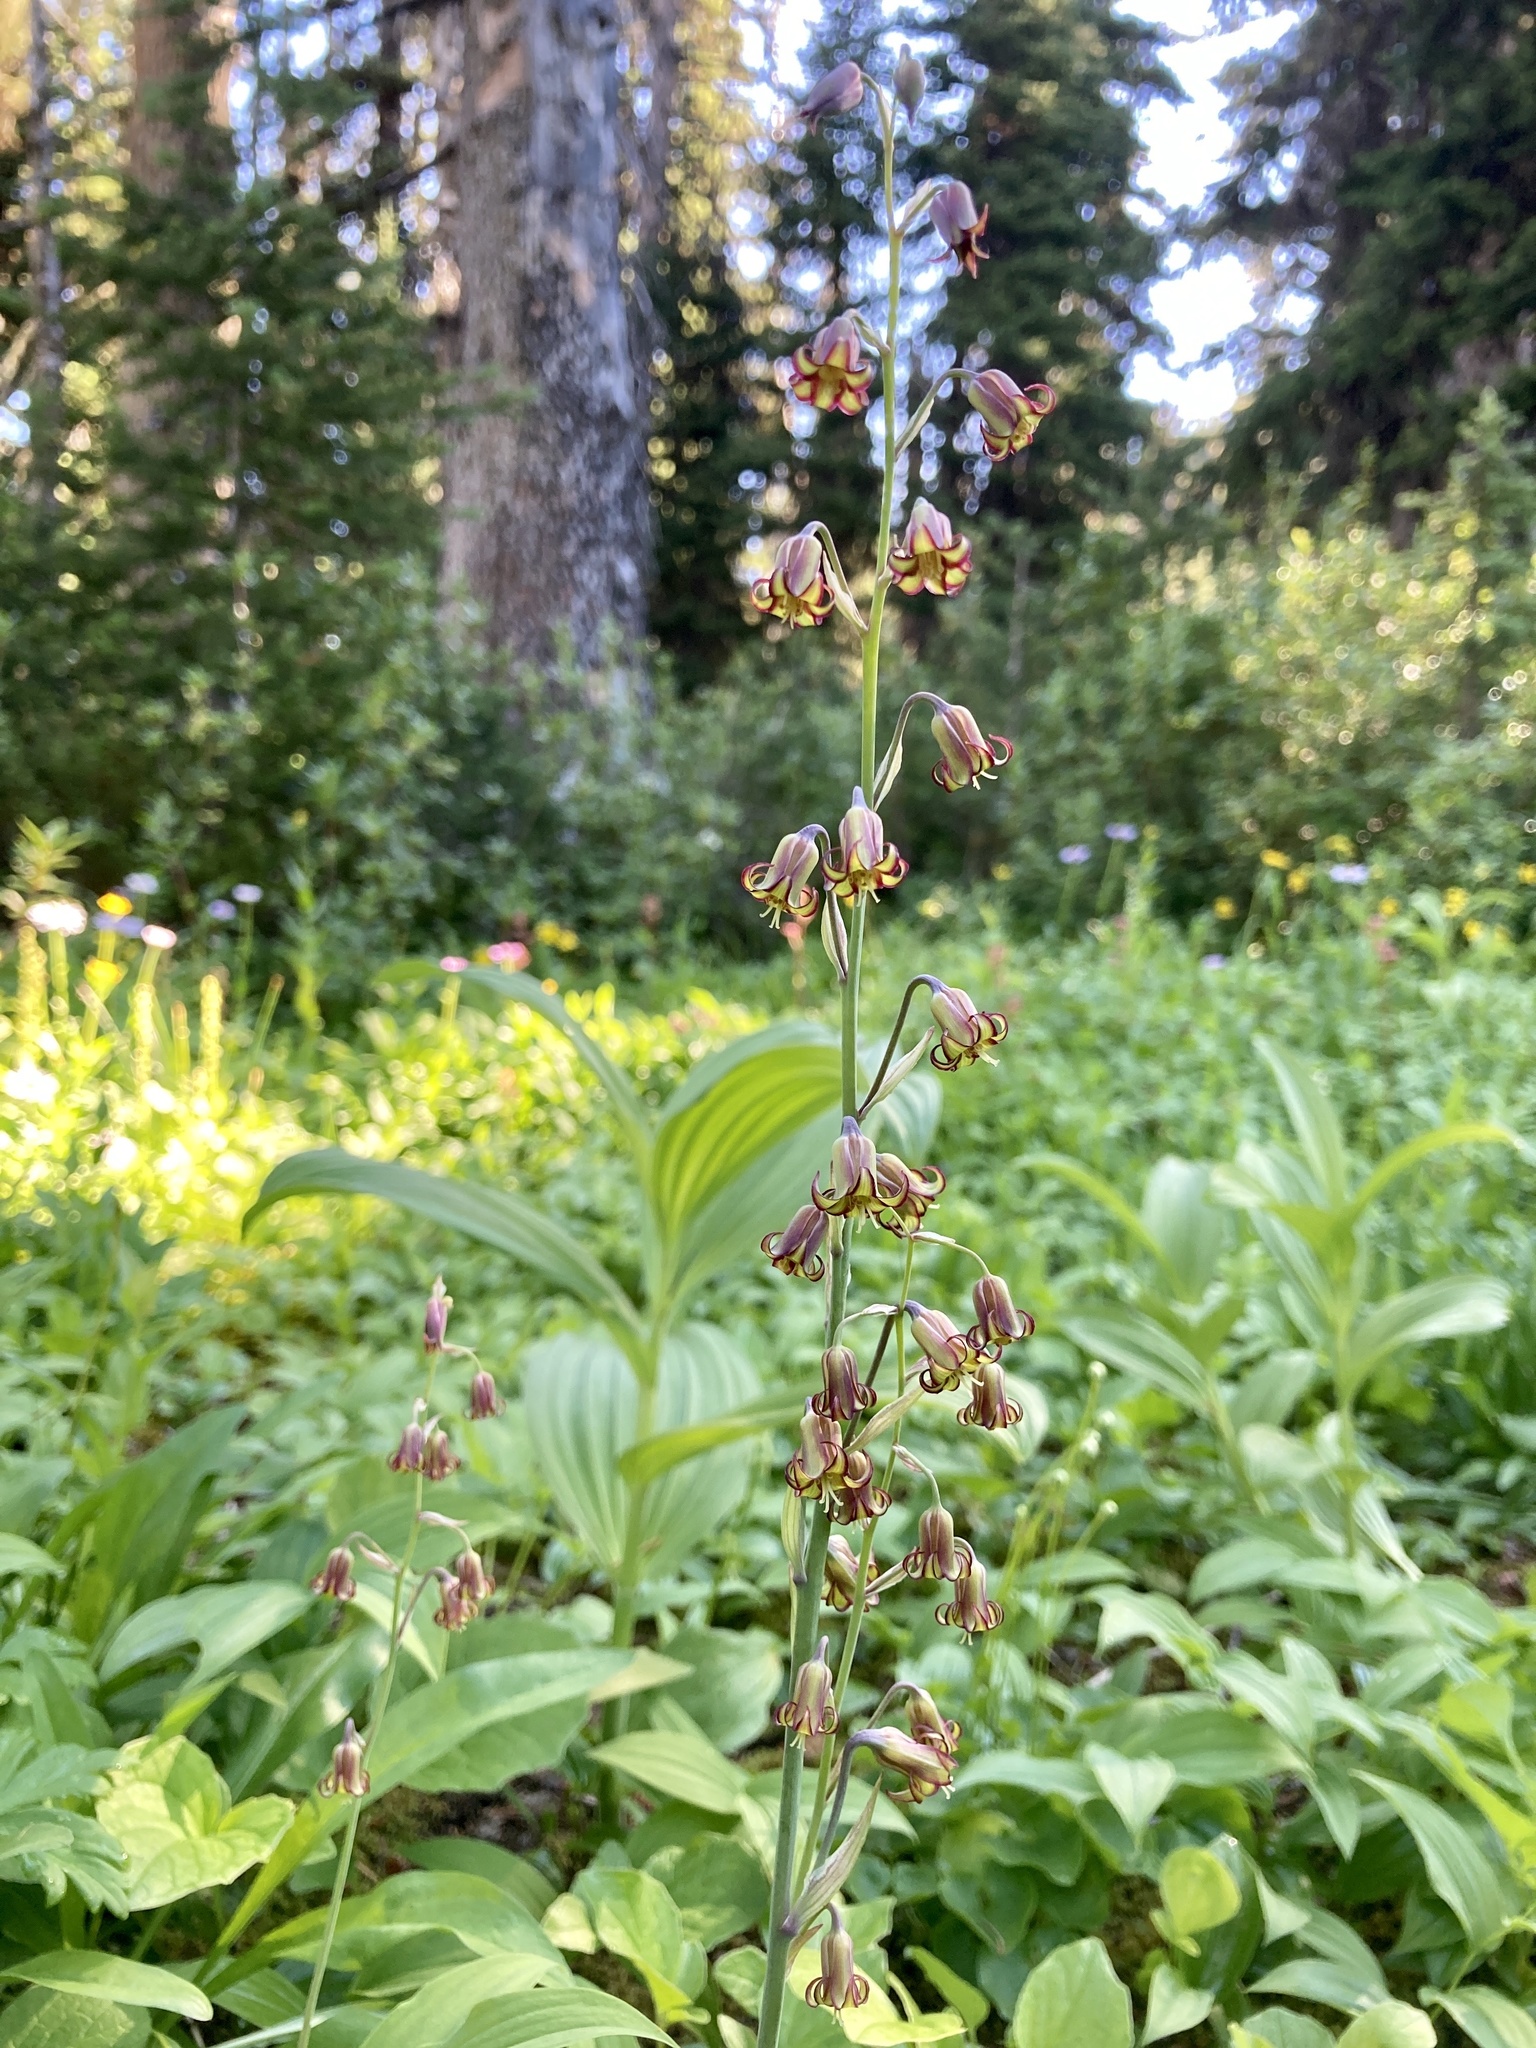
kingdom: Plantae
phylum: Tracheophyta
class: Liliopsida
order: Liliales
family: Melanthiaceae
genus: Anticlea
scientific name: Anticlea occidentalis
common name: Bronze-bells
